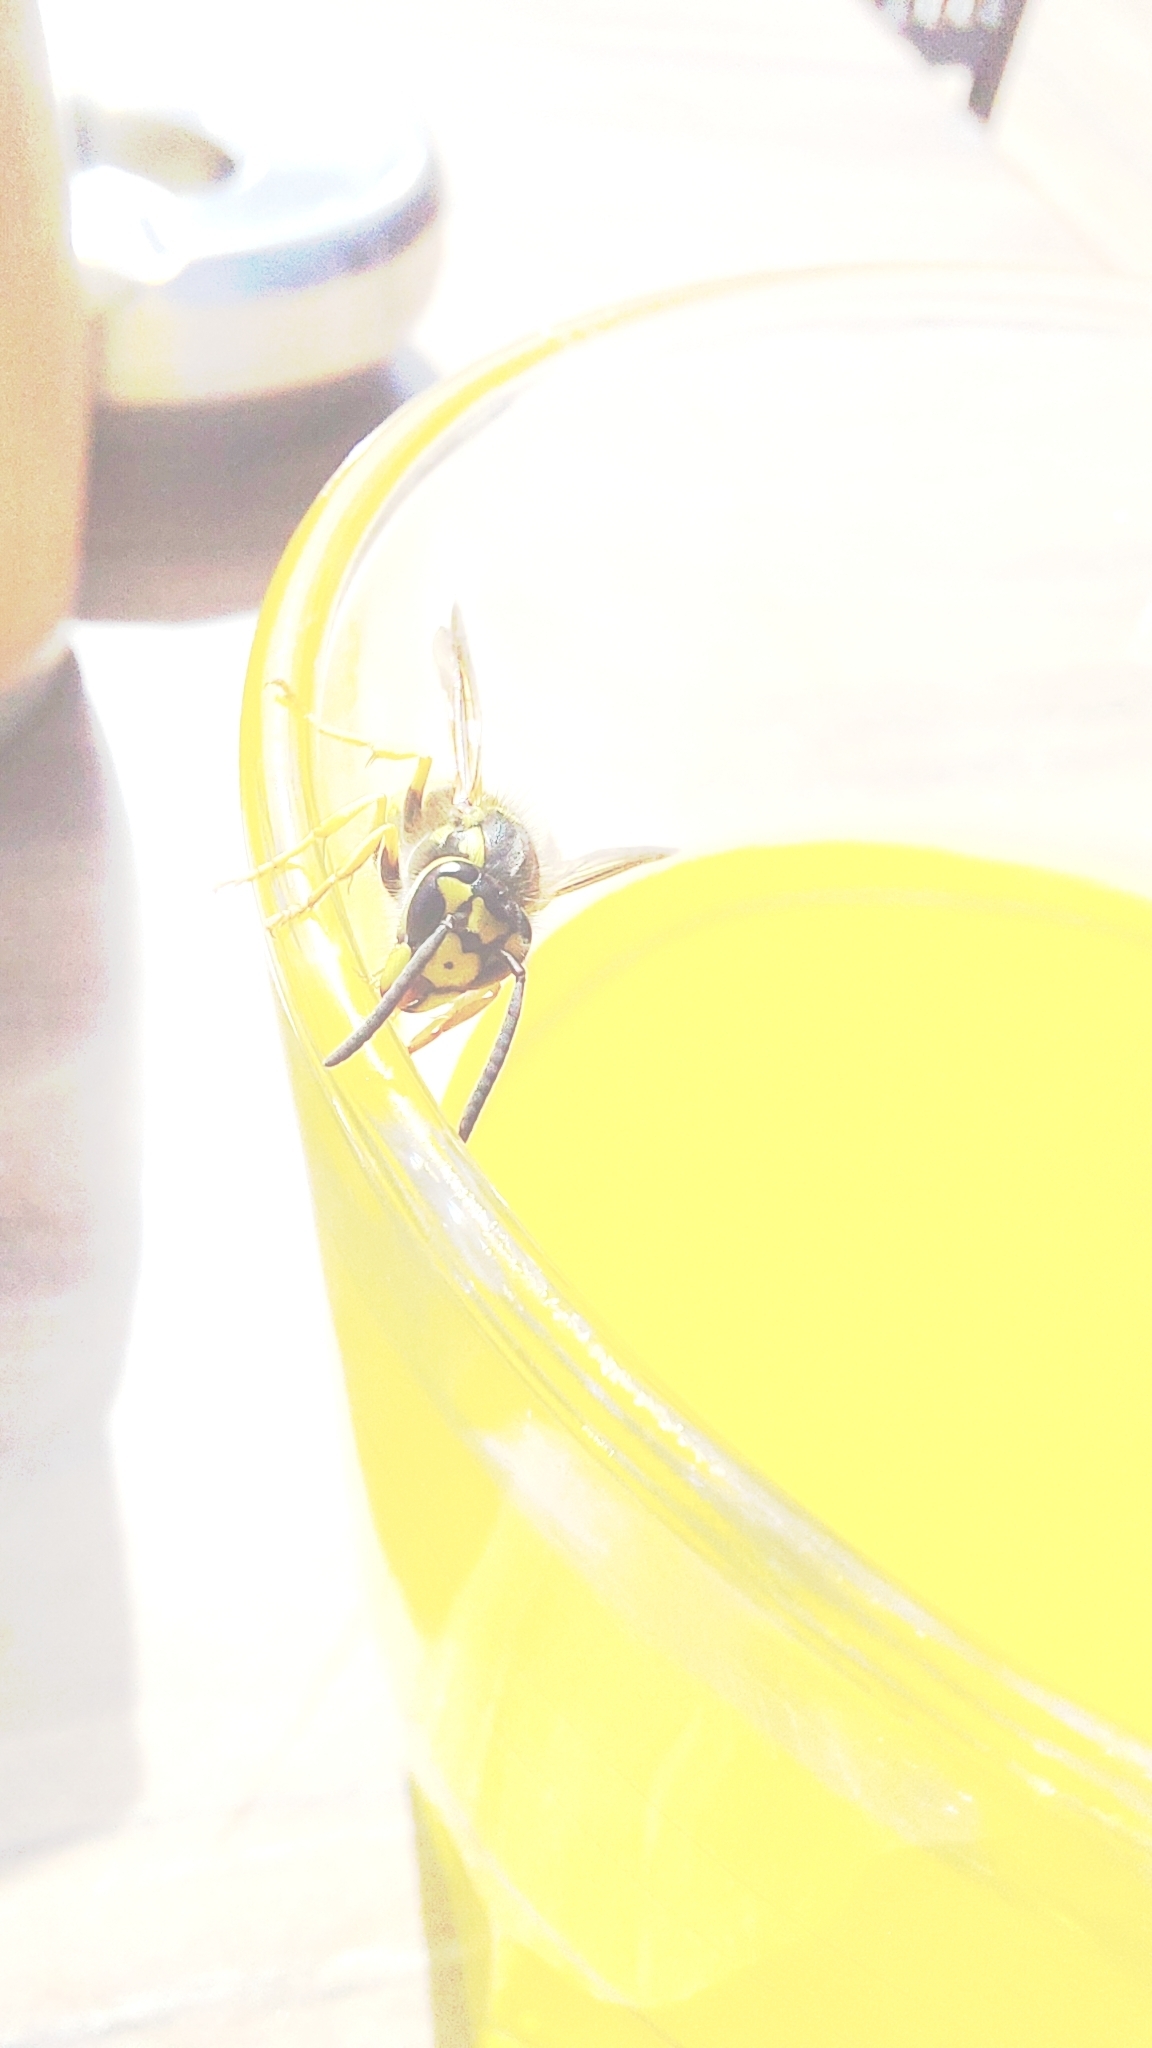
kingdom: Animalia
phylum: Arthropoda
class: Insecta
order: Hymenoptera
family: Vespidae
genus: Vespula
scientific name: Vespula germanica
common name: German wasp
